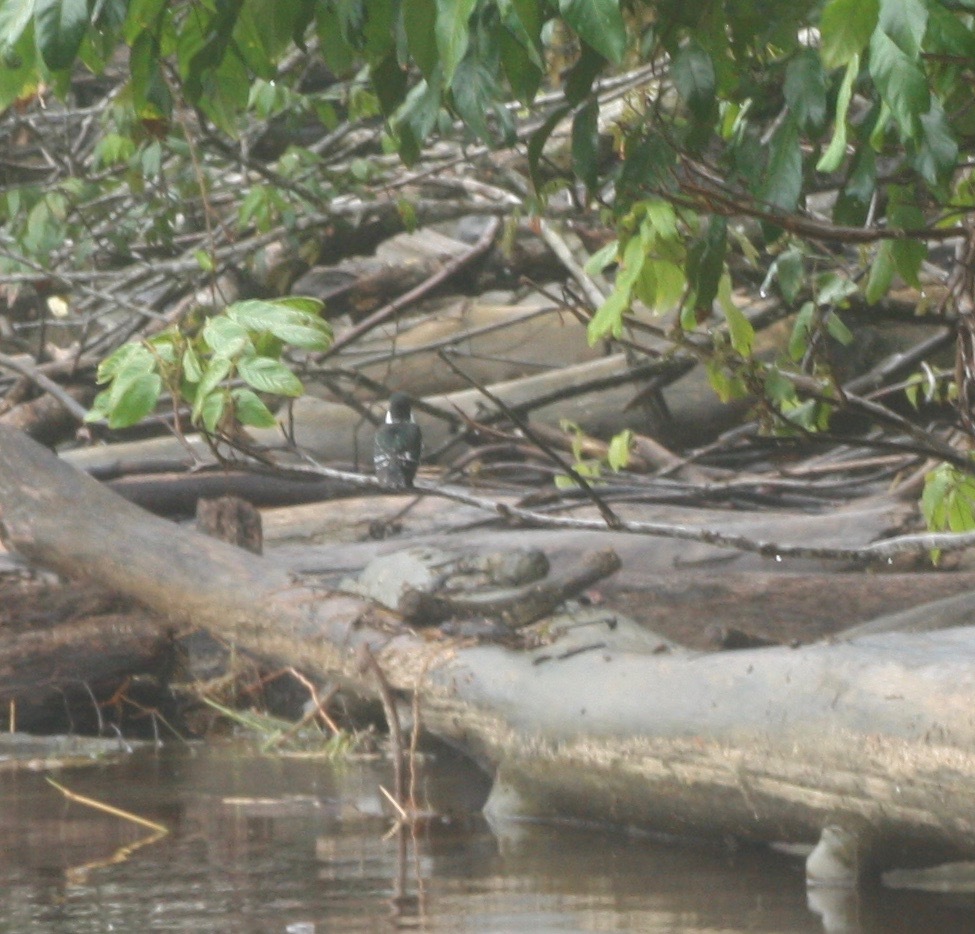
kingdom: Animalia
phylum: Chordata
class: Aves
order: Coraciiformes
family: Alcedinidae
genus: Chloroceryle
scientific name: Chloroceryle americana
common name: Green kingfisher
